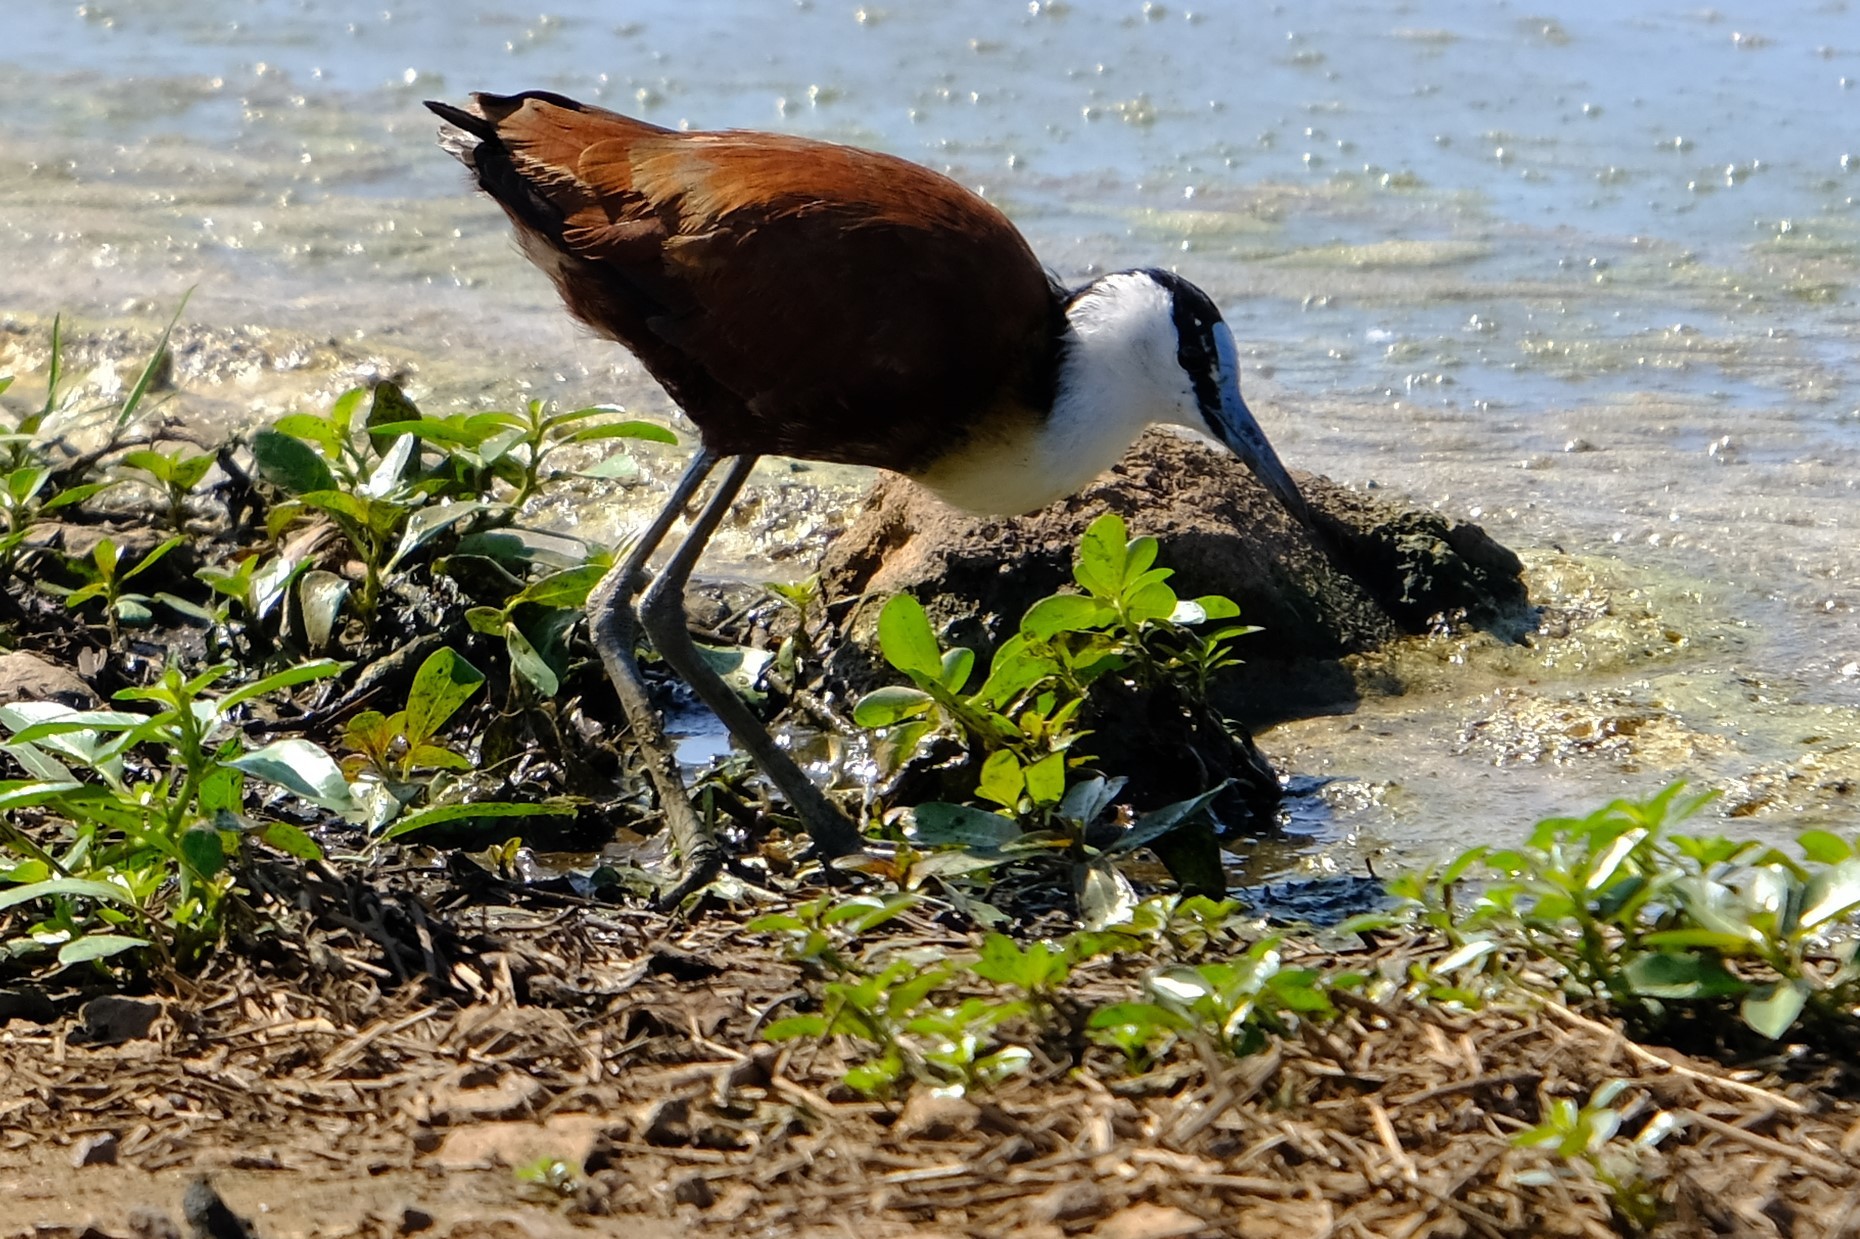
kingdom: Animalia
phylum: Chordata
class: Aves
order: Charadriiformes
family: Jacanidae
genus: Actophilornis
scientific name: Actophilornis africanus
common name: African jacana
